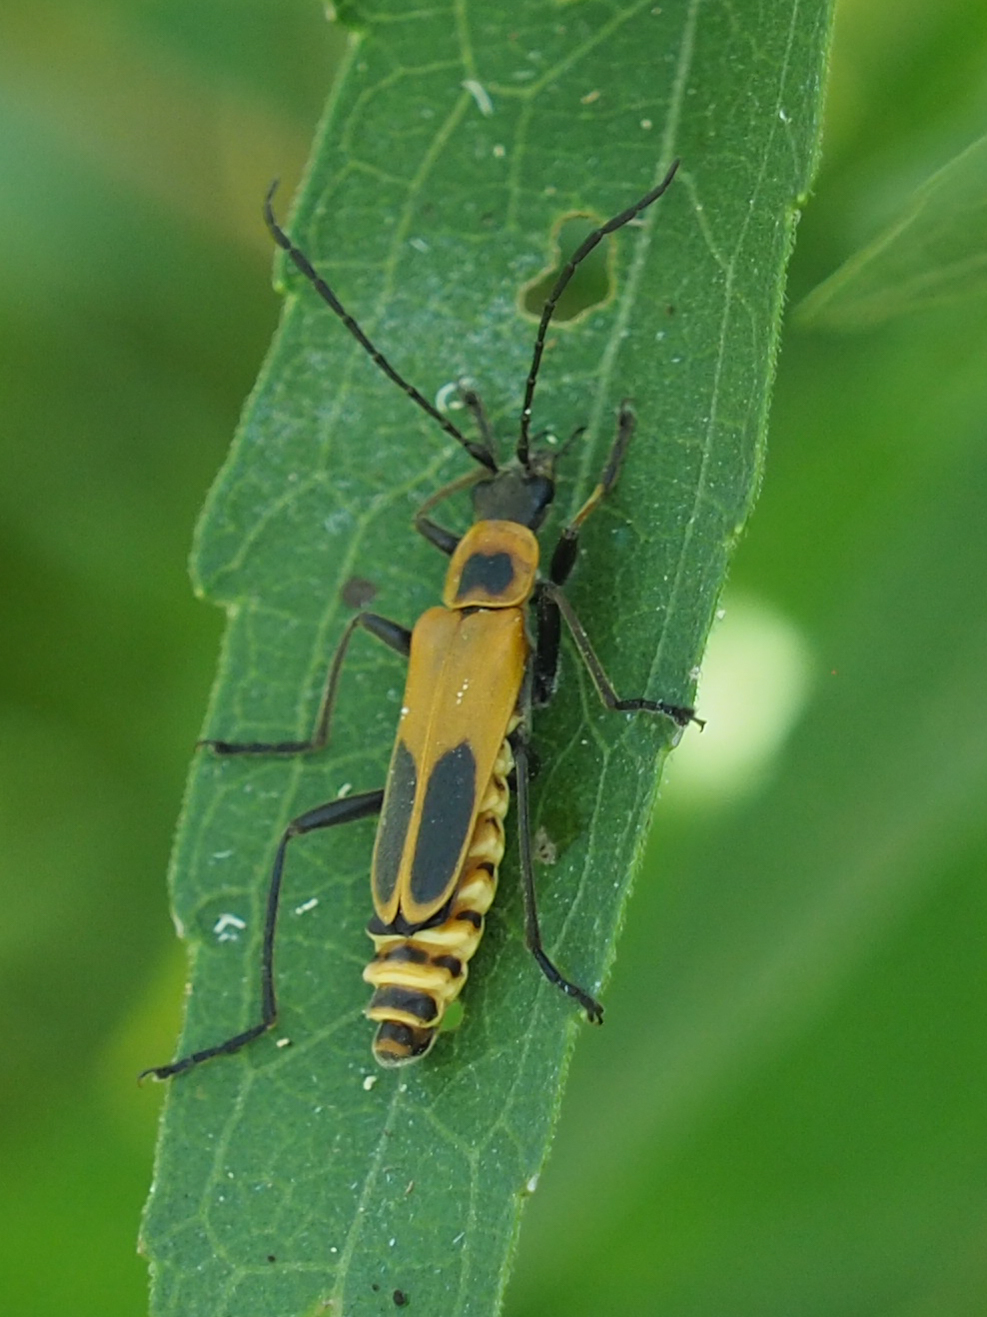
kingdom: Animalia
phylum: Arthropoda
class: Insecta
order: Coleoptera
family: Cantharidae
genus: Chauliognathus
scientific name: Chauliognathus pensylvanicus
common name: Goldenrod soldier beetle
